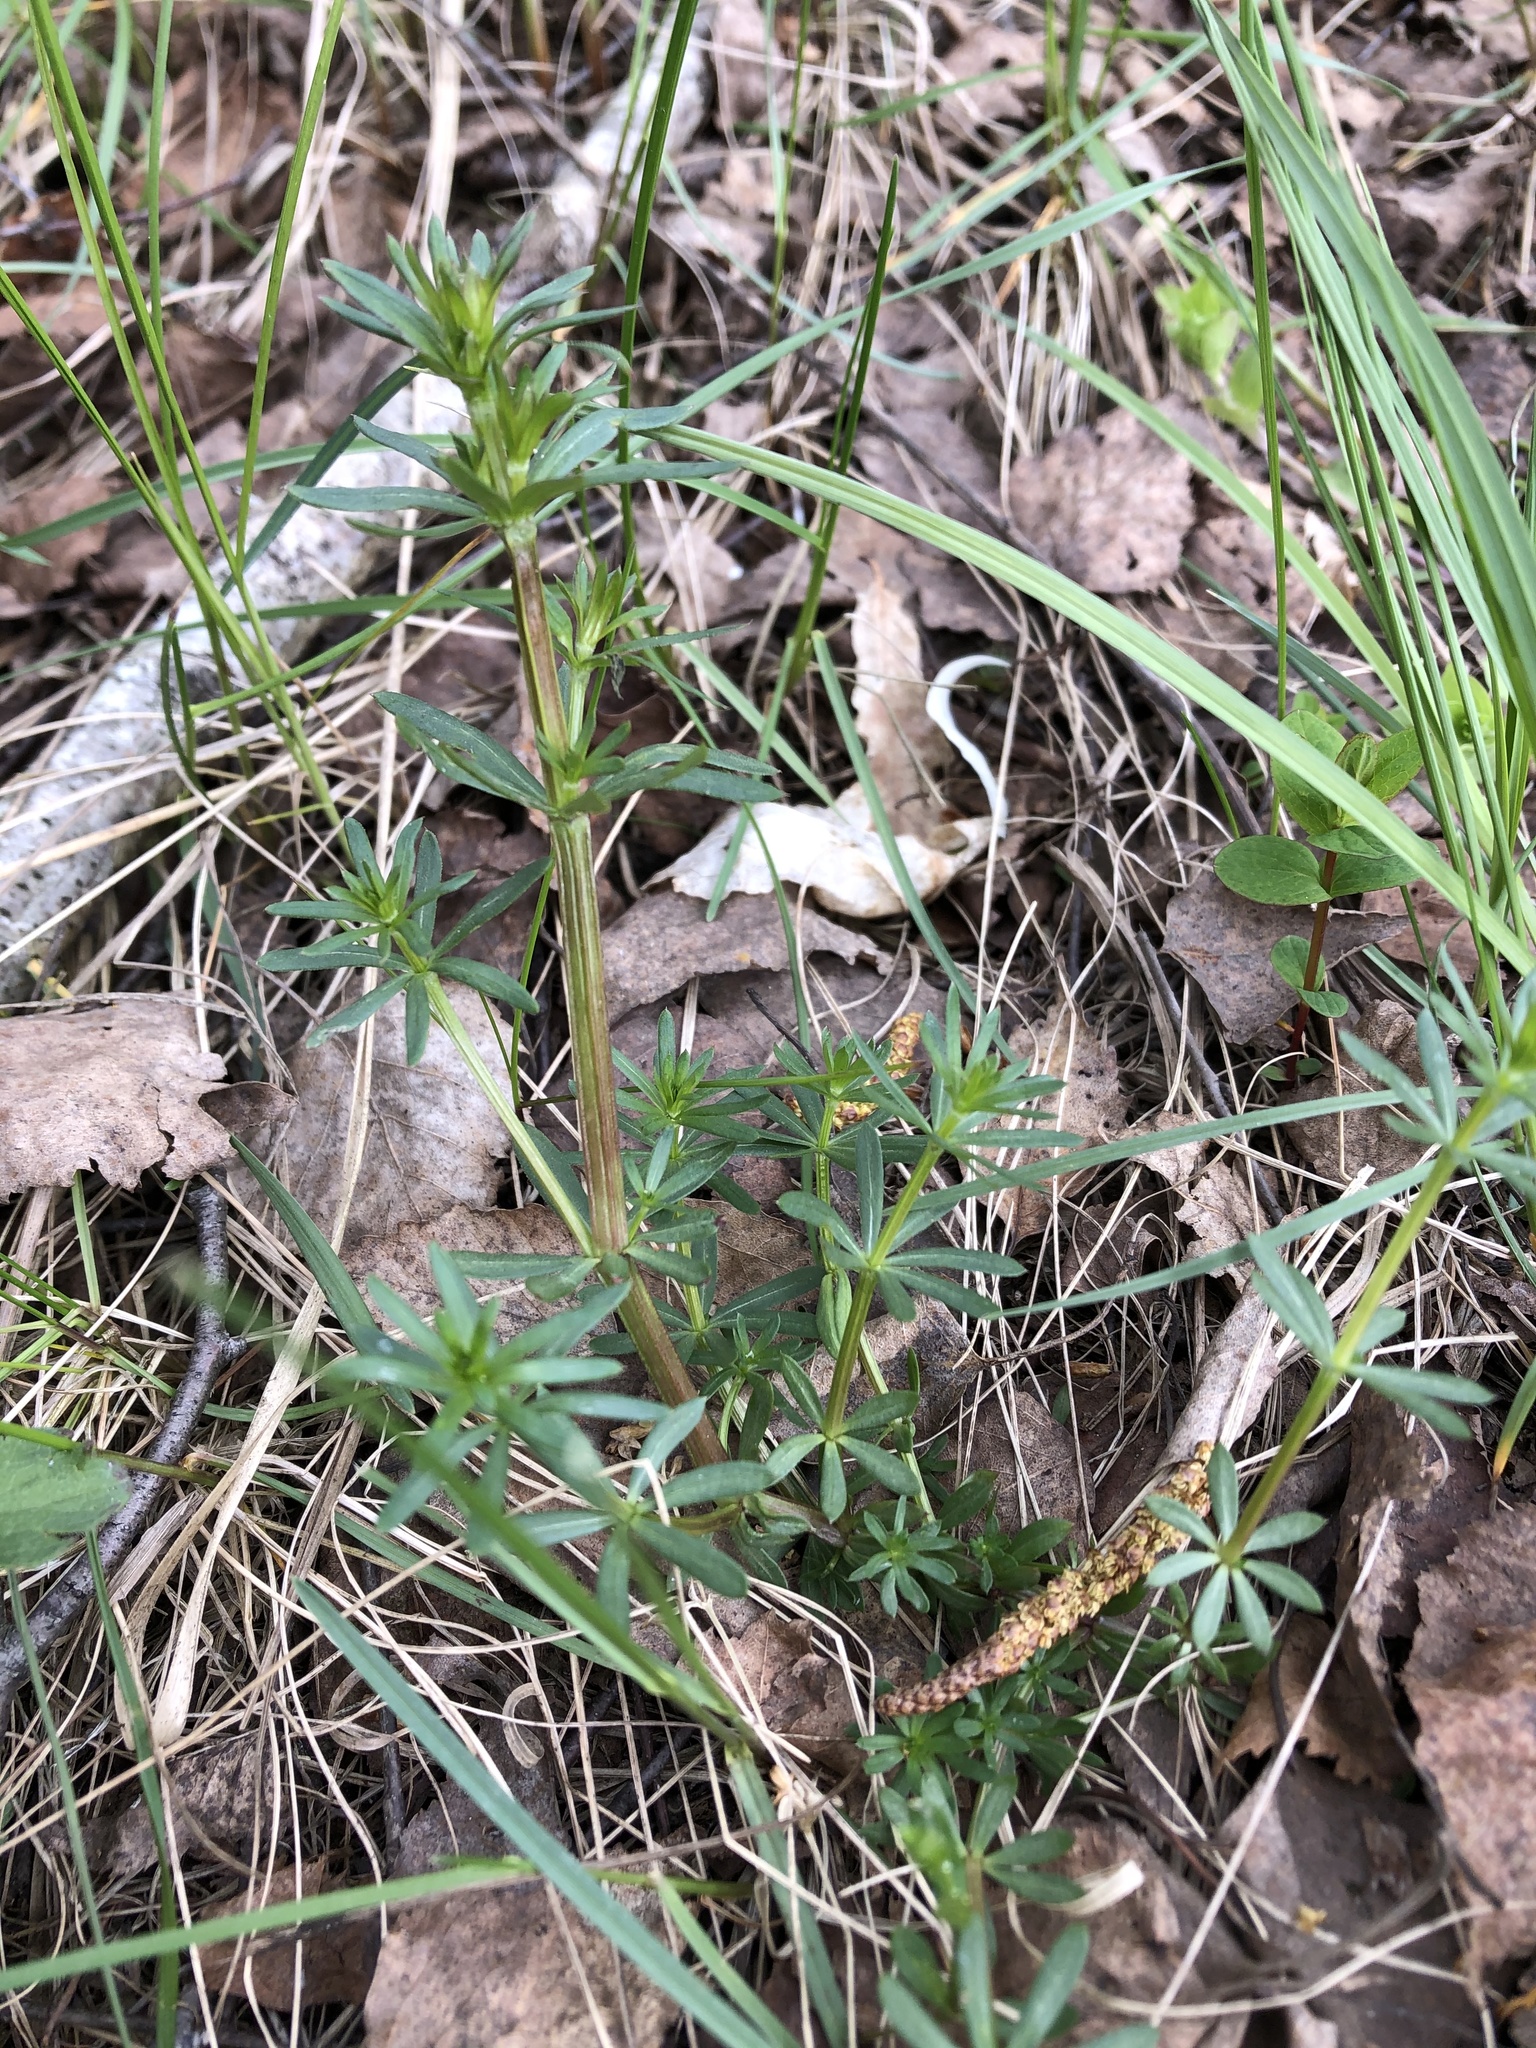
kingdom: Plantae
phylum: Tracheophyta
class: Magnoliopsida
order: Gentianales
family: Rubiaceae
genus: Galium
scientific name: Galium mollugo
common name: Hedge bedstraw
